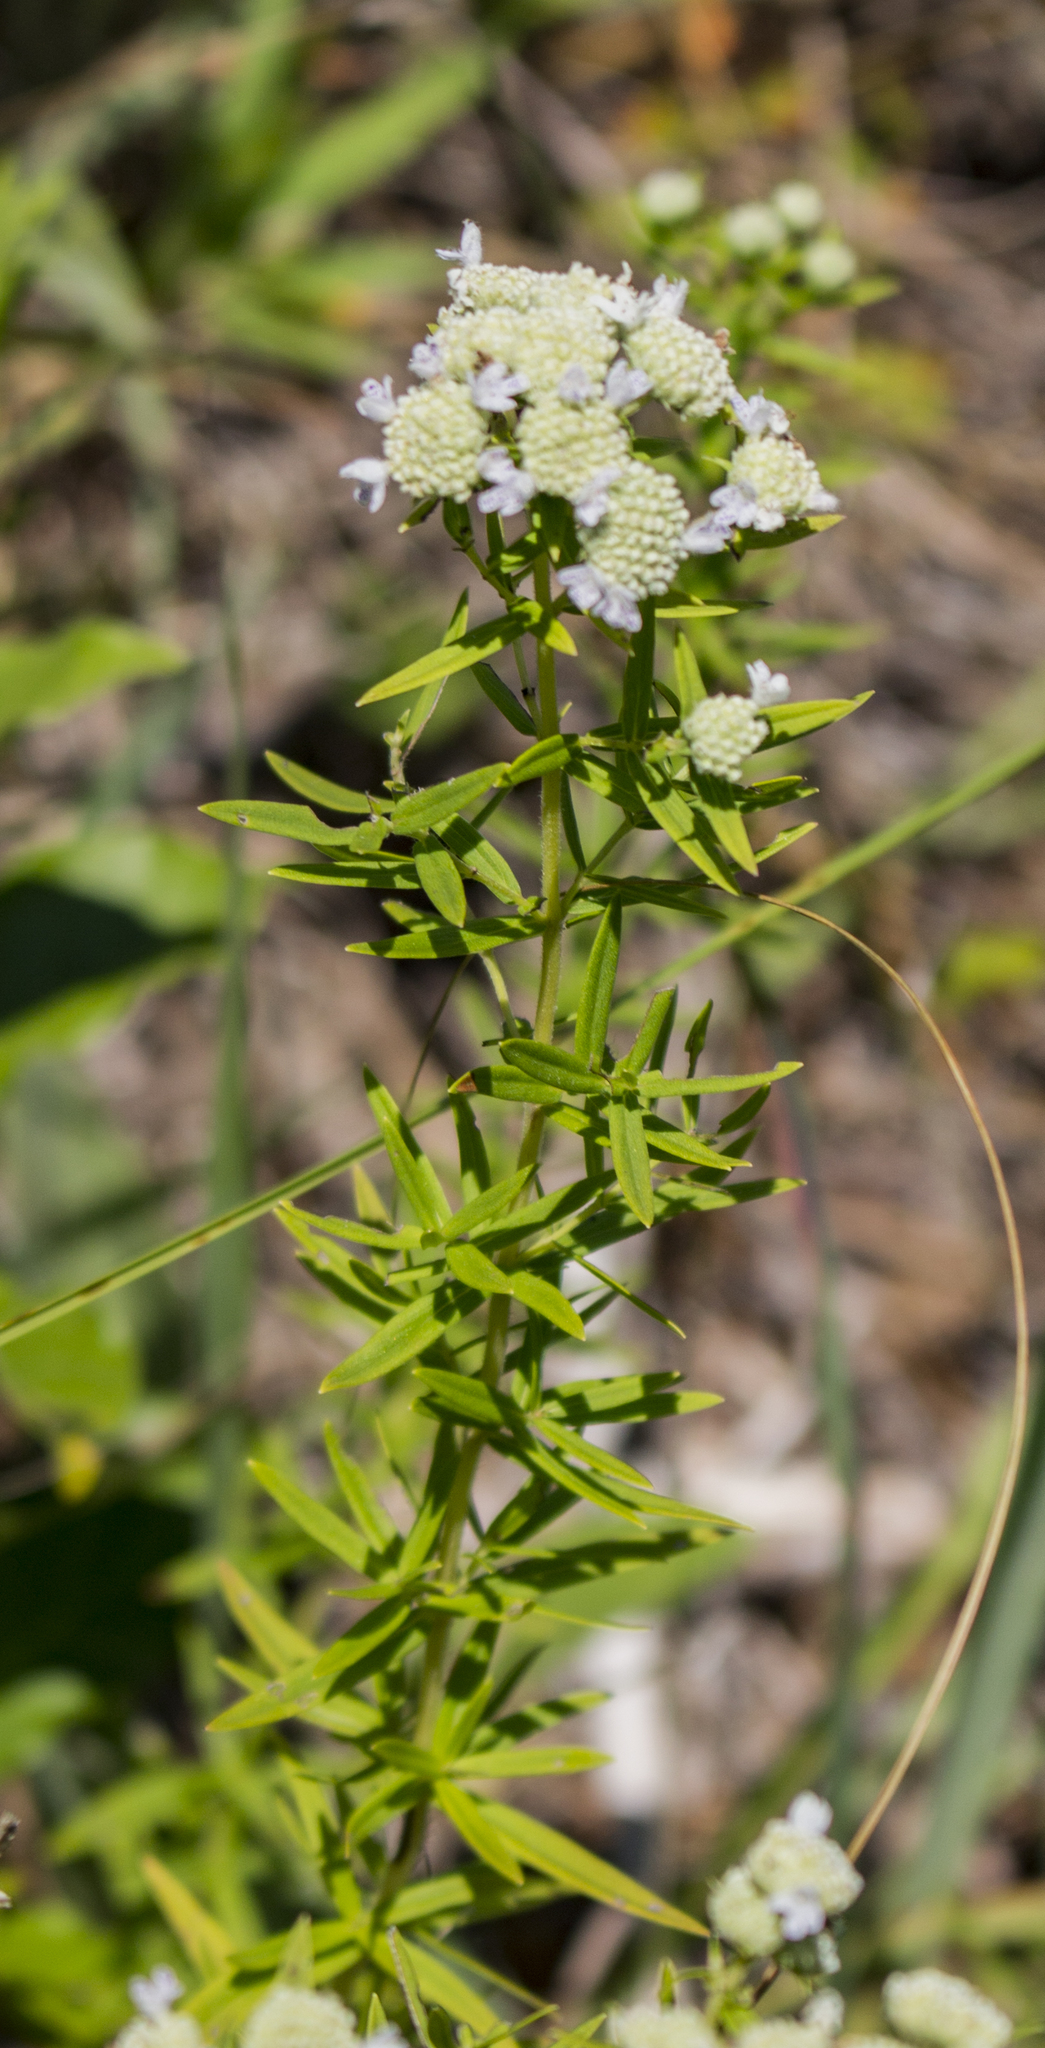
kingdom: Plantae
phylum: Tracheophyta
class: Magnoliopsida
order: Lamiales
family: Lamiaceae
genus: Pycnanthemum
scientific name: Pycnanthemum virginianum
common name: Virginia mountain-mint
